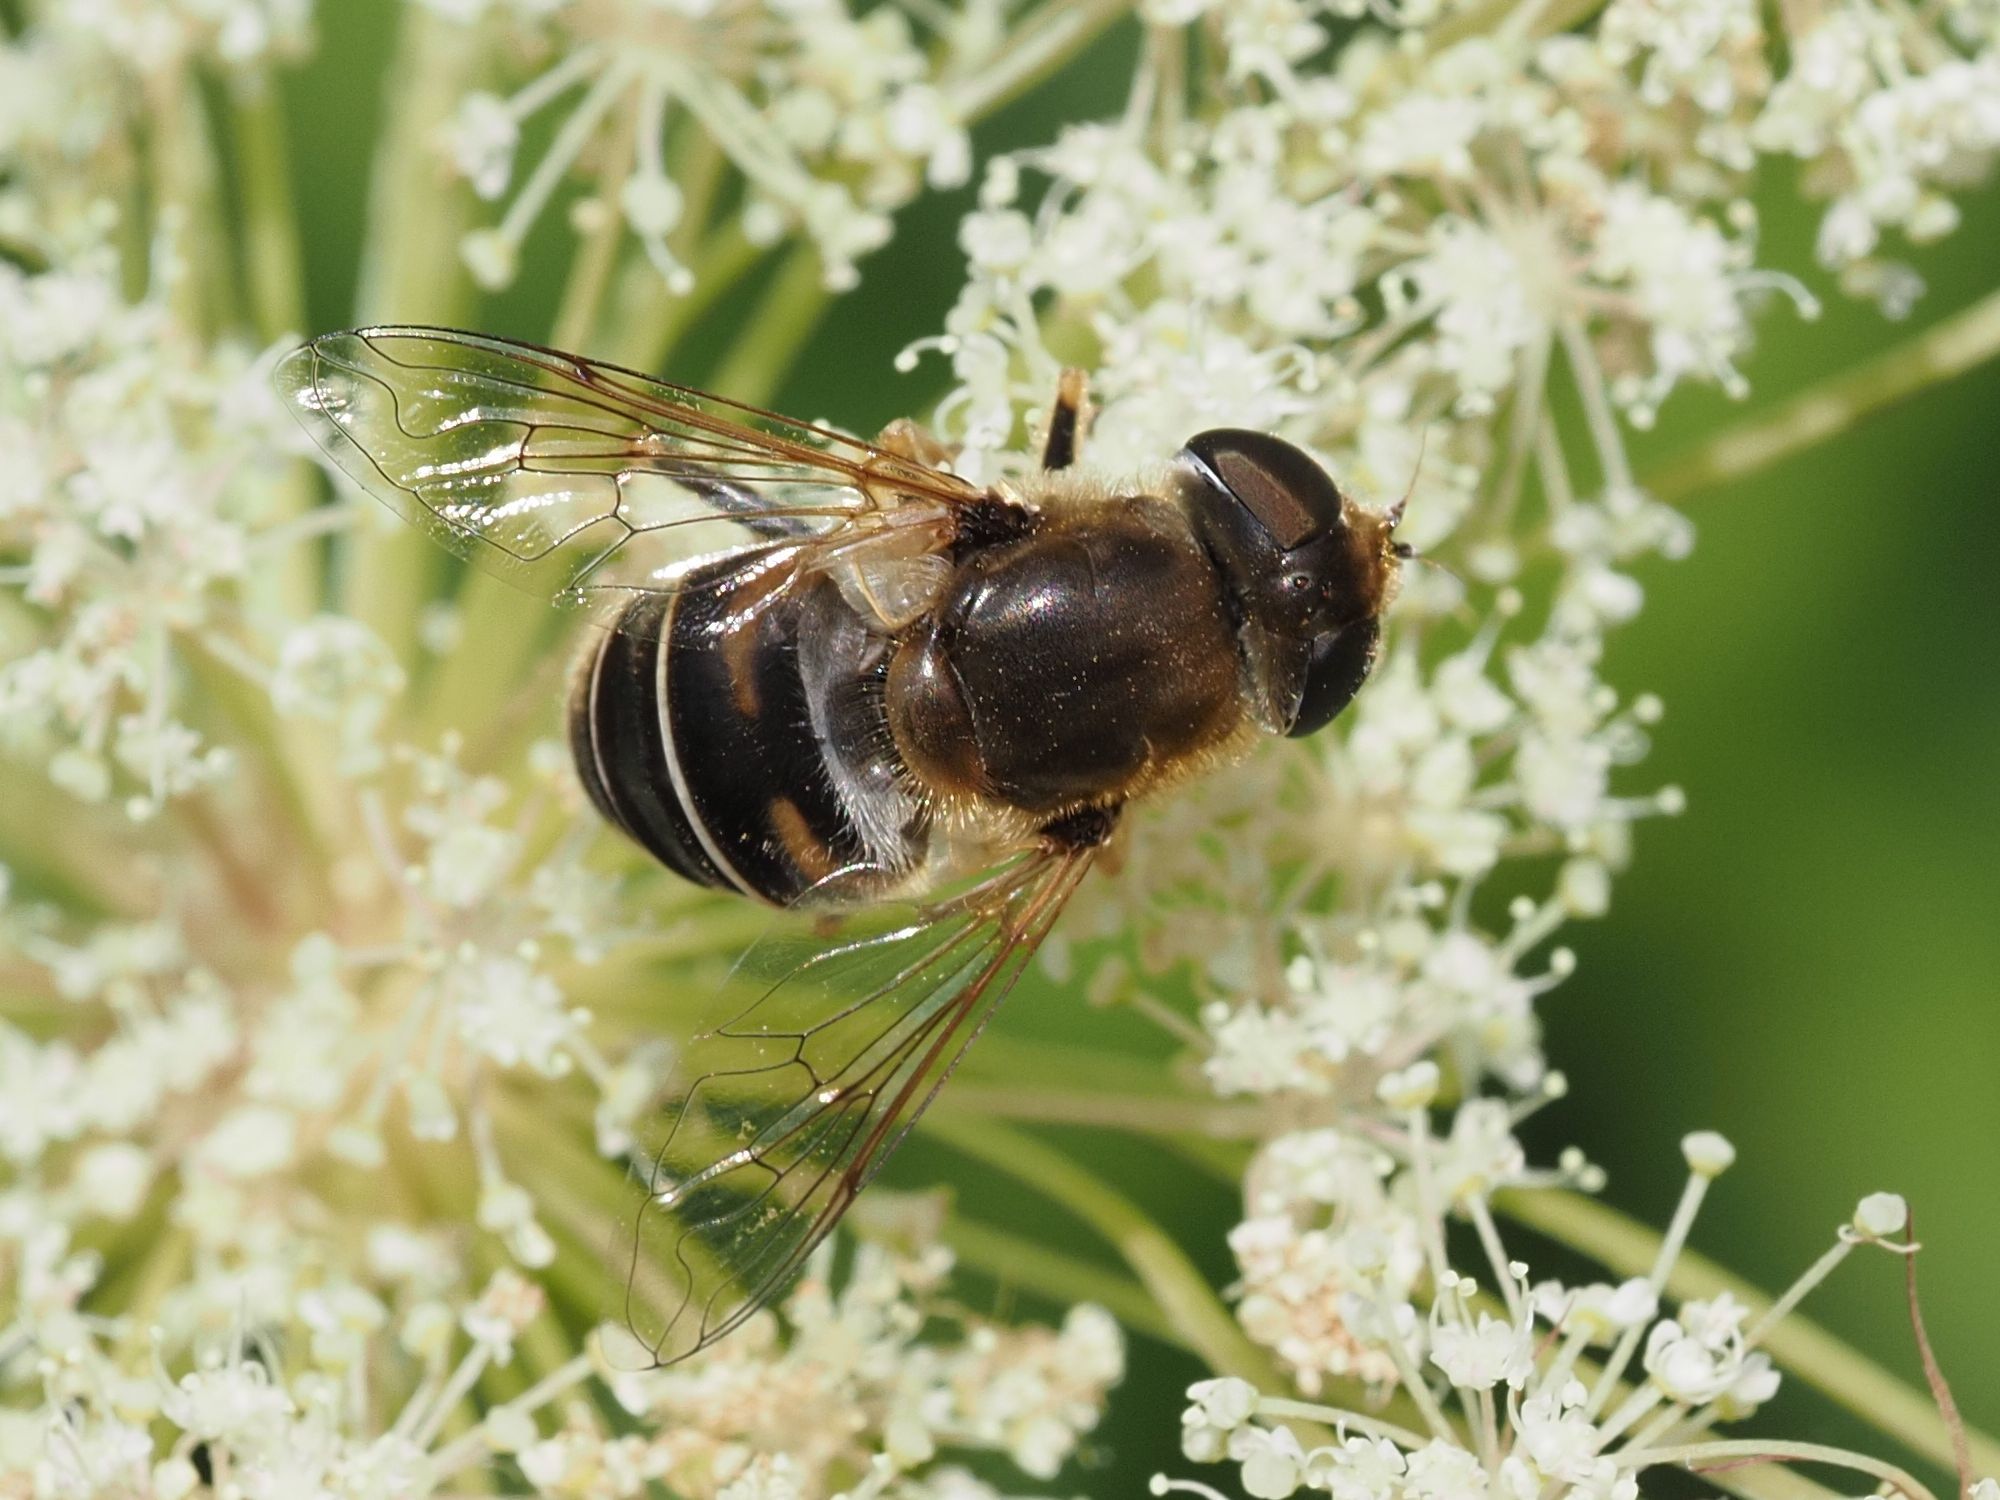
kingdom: Animalia
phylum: Arthropoda
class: Insecta
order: Diptera
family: Syrphidae
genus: Eristalis
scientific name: Eristalis nemorum
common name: Orange-spined drone fly
